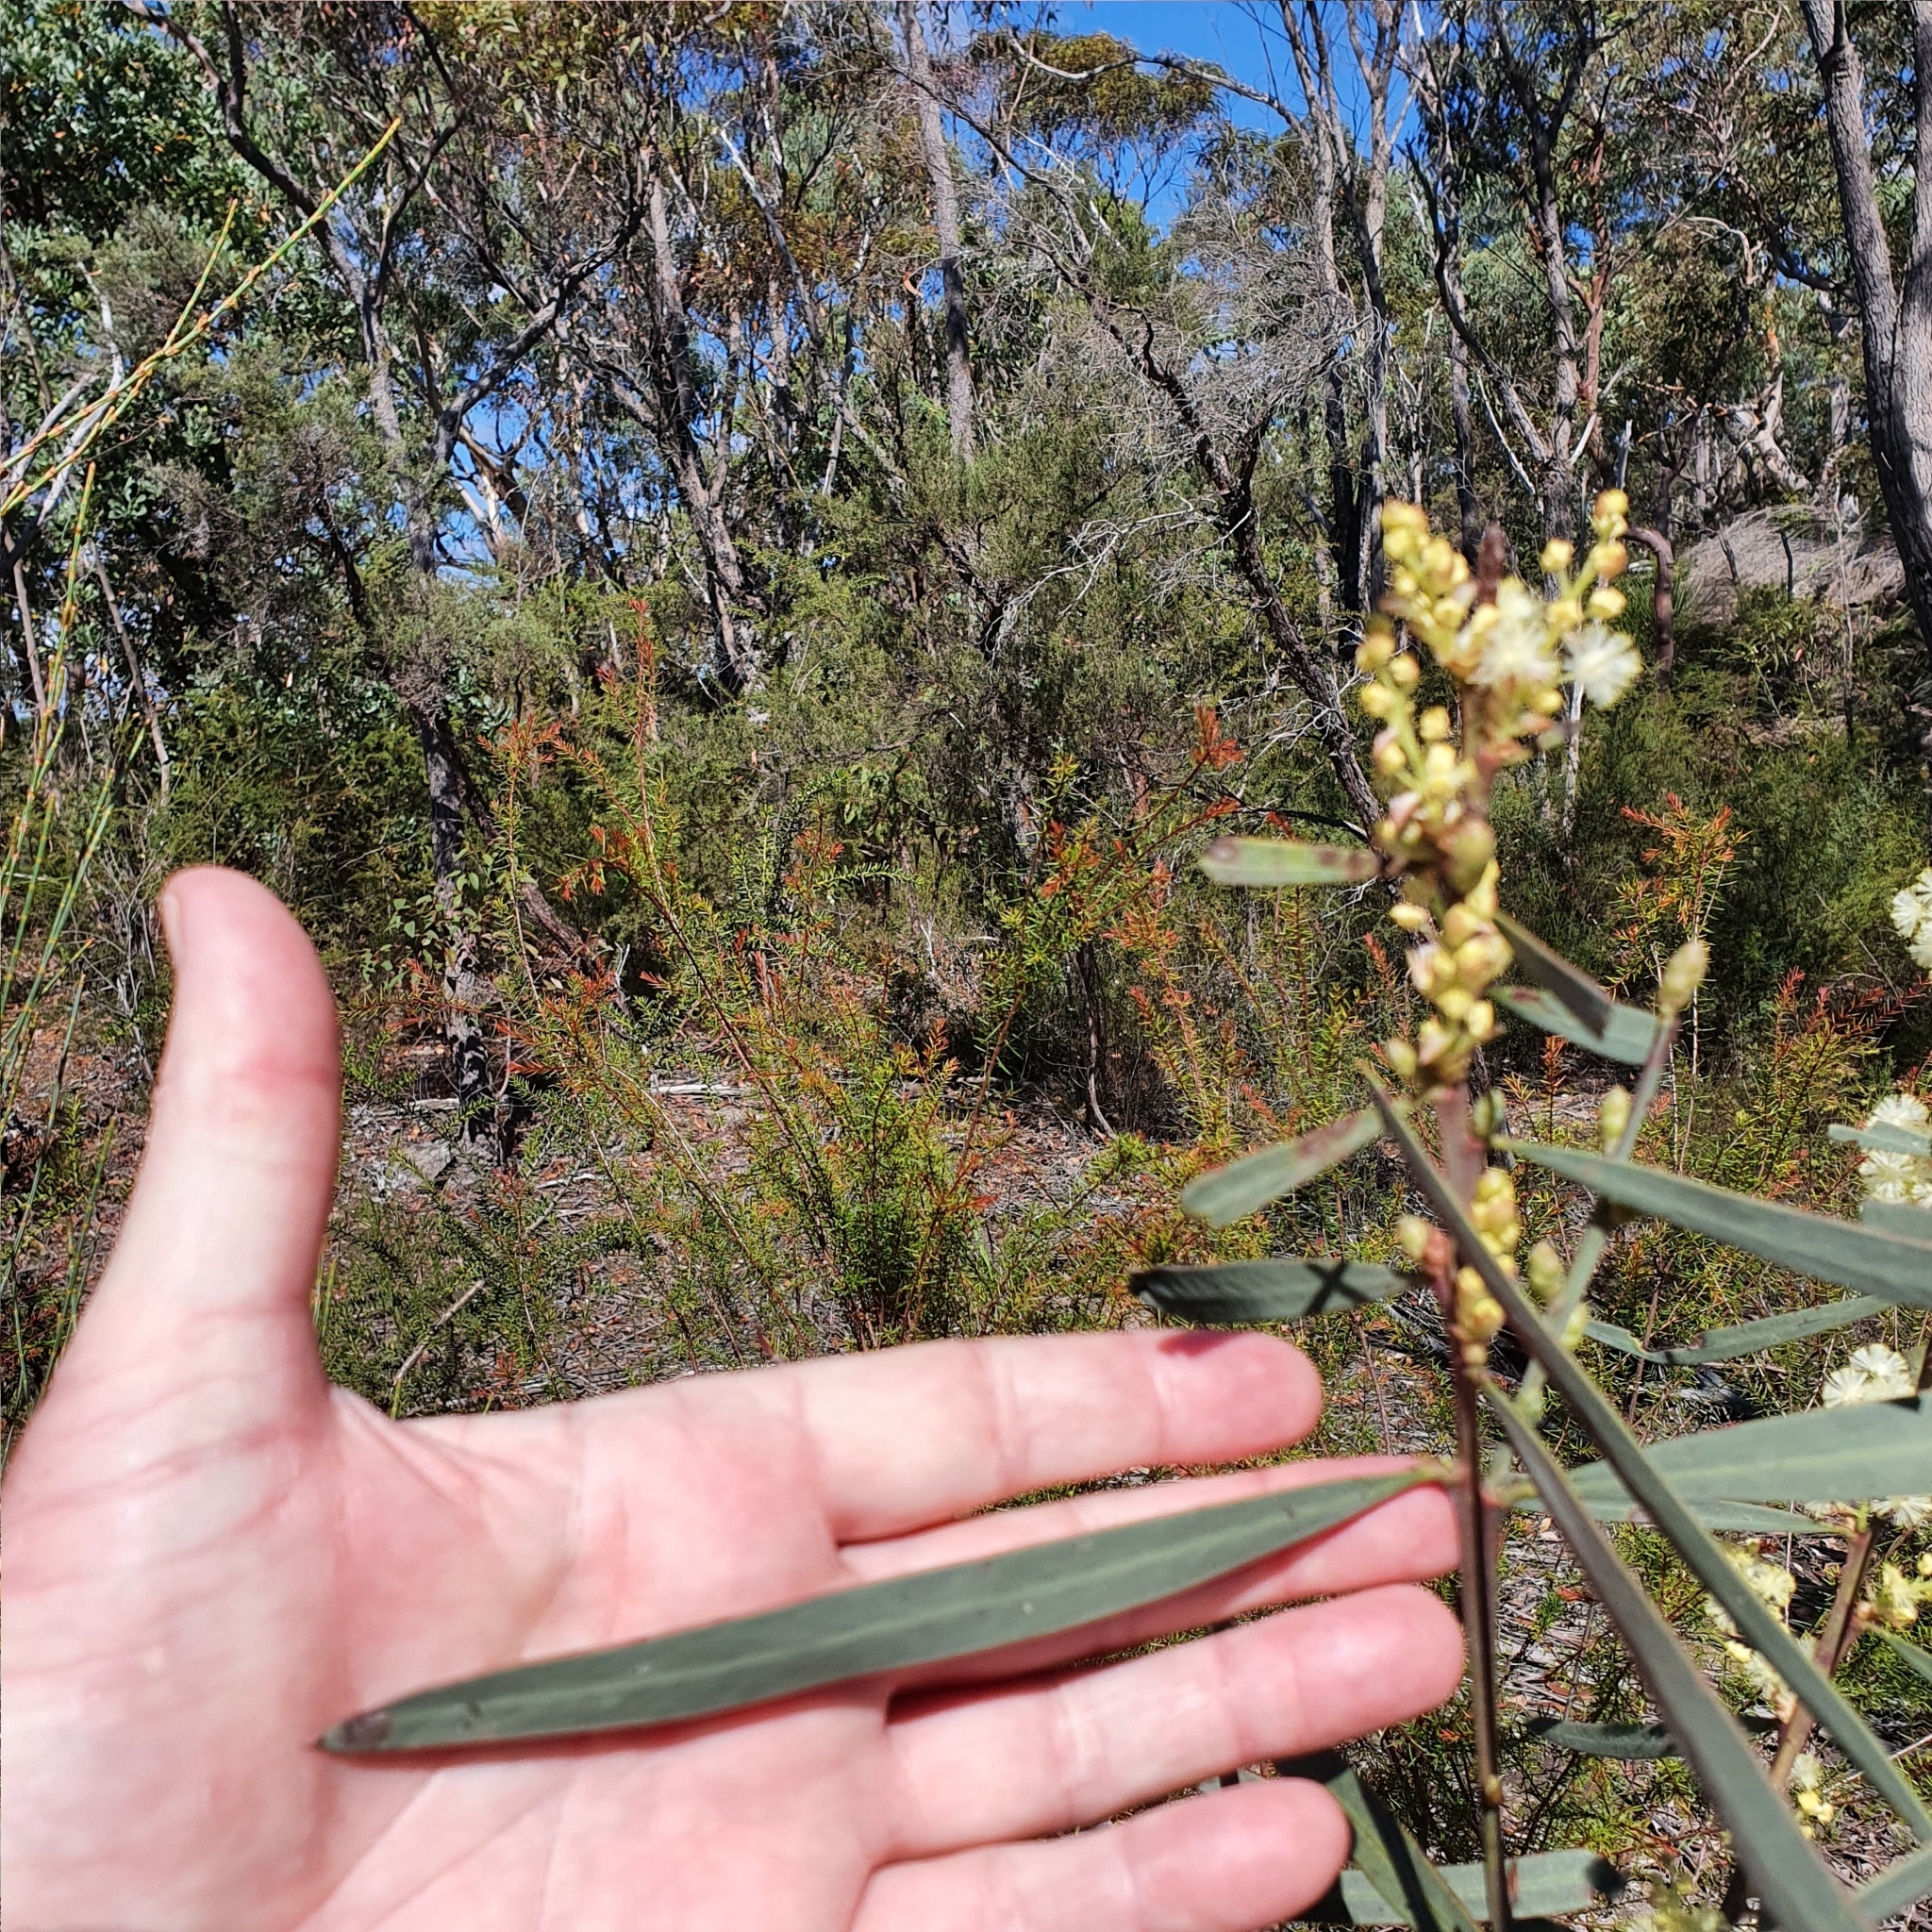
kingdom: Plantae
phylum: Tracheophyta
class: Magnoliopsida
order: Fabales
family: Fabaceae
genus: Acacia
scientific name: Acacia suaveolens
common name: Sweet acacia
